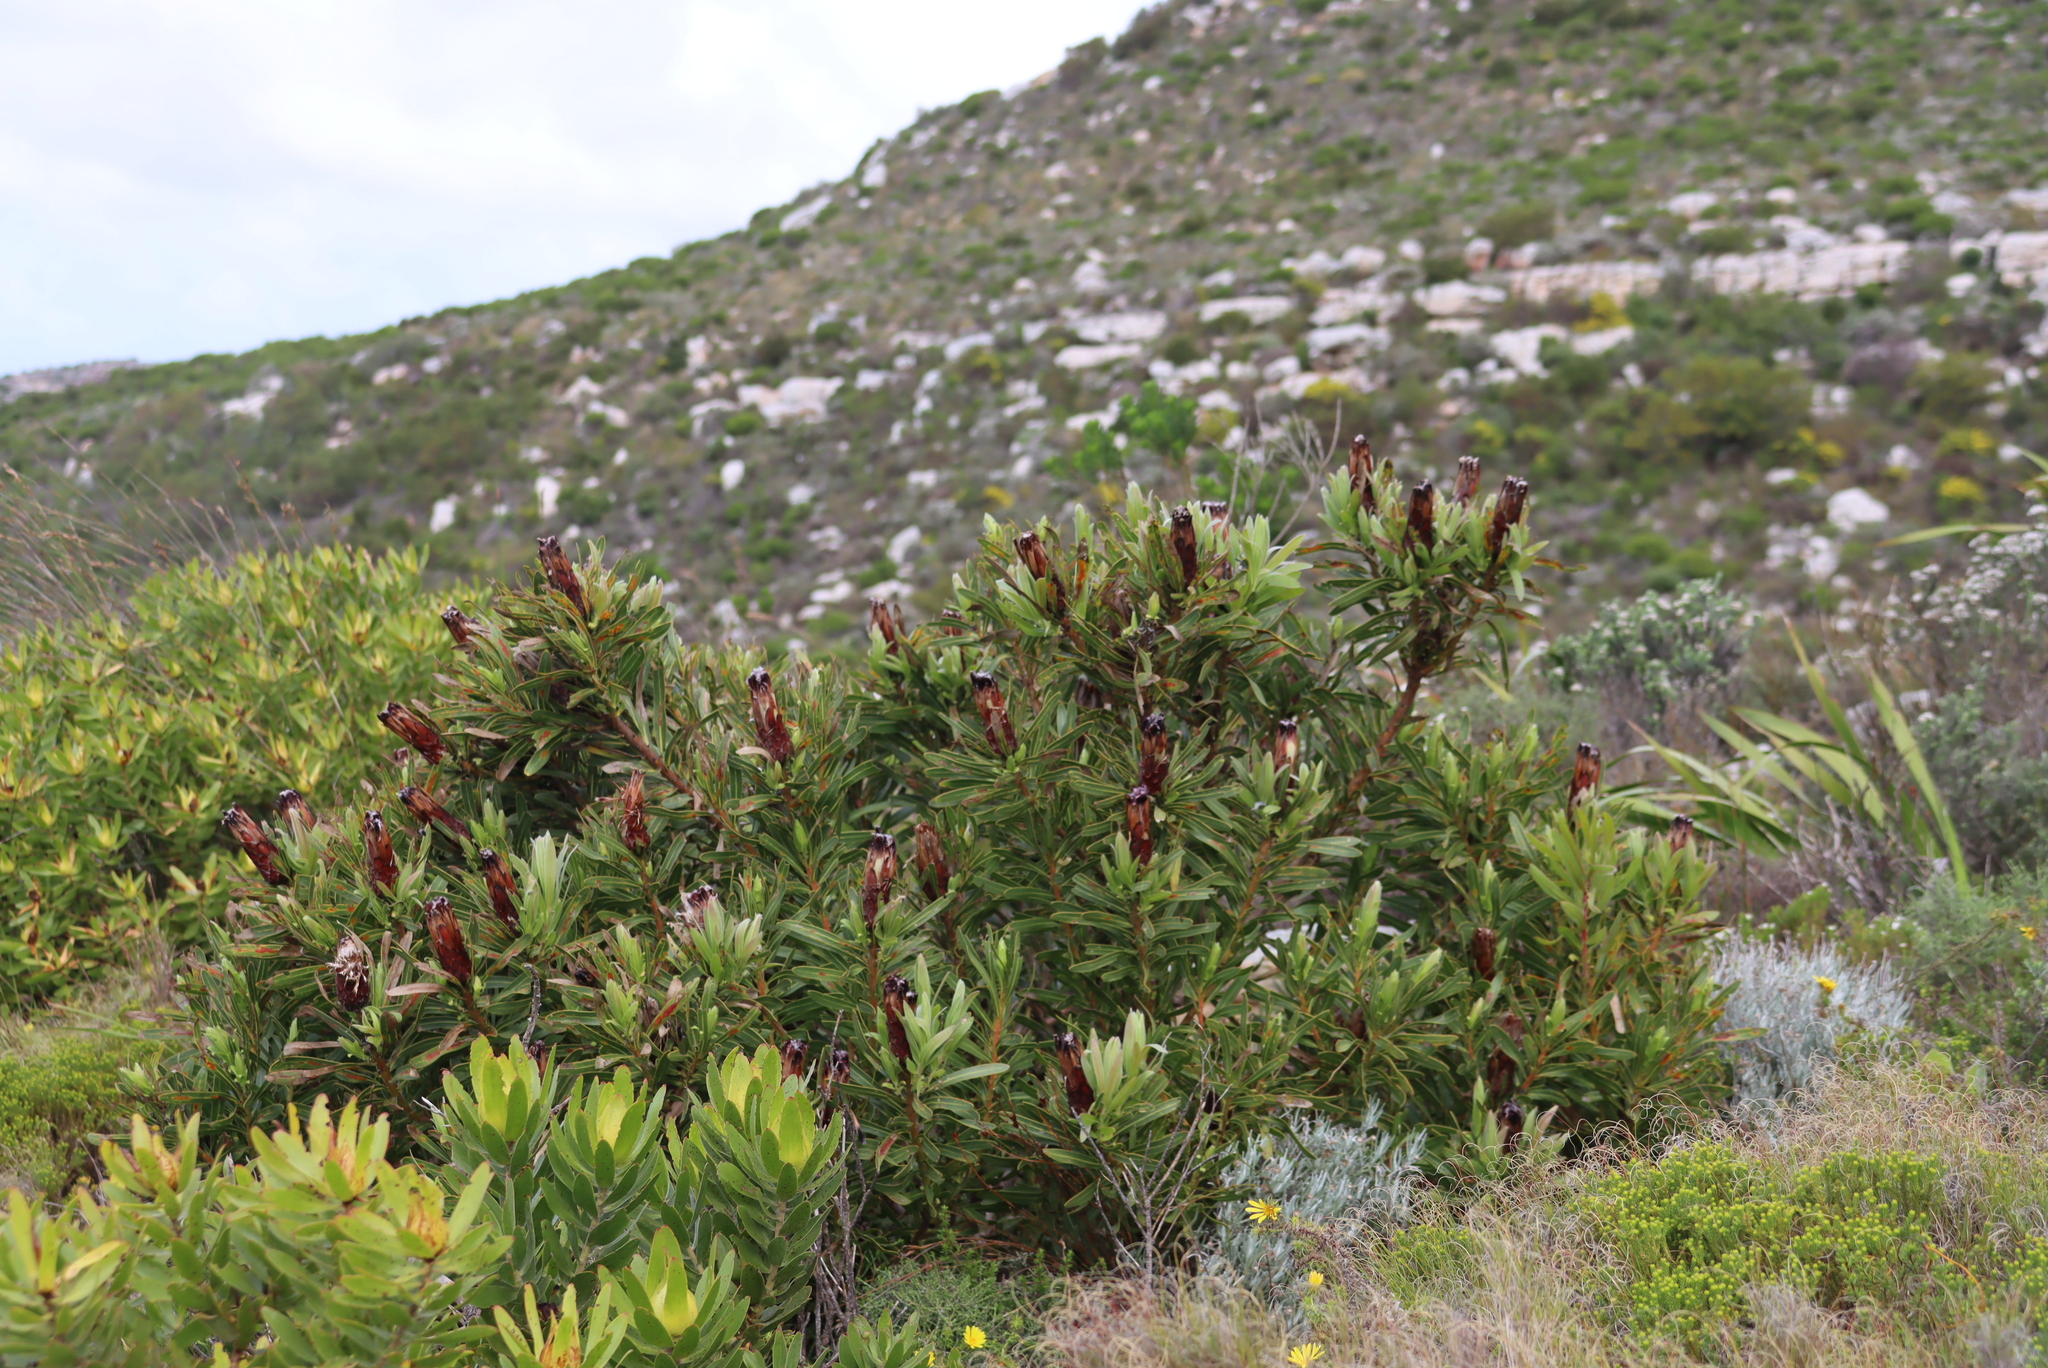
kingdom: Plantae
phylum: Tracheophyta
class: Magnoliopsida
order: Proteales
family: Proteaceae
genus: Protea
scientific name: Protea lepidocarpodendron
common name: Black-bearded protea
